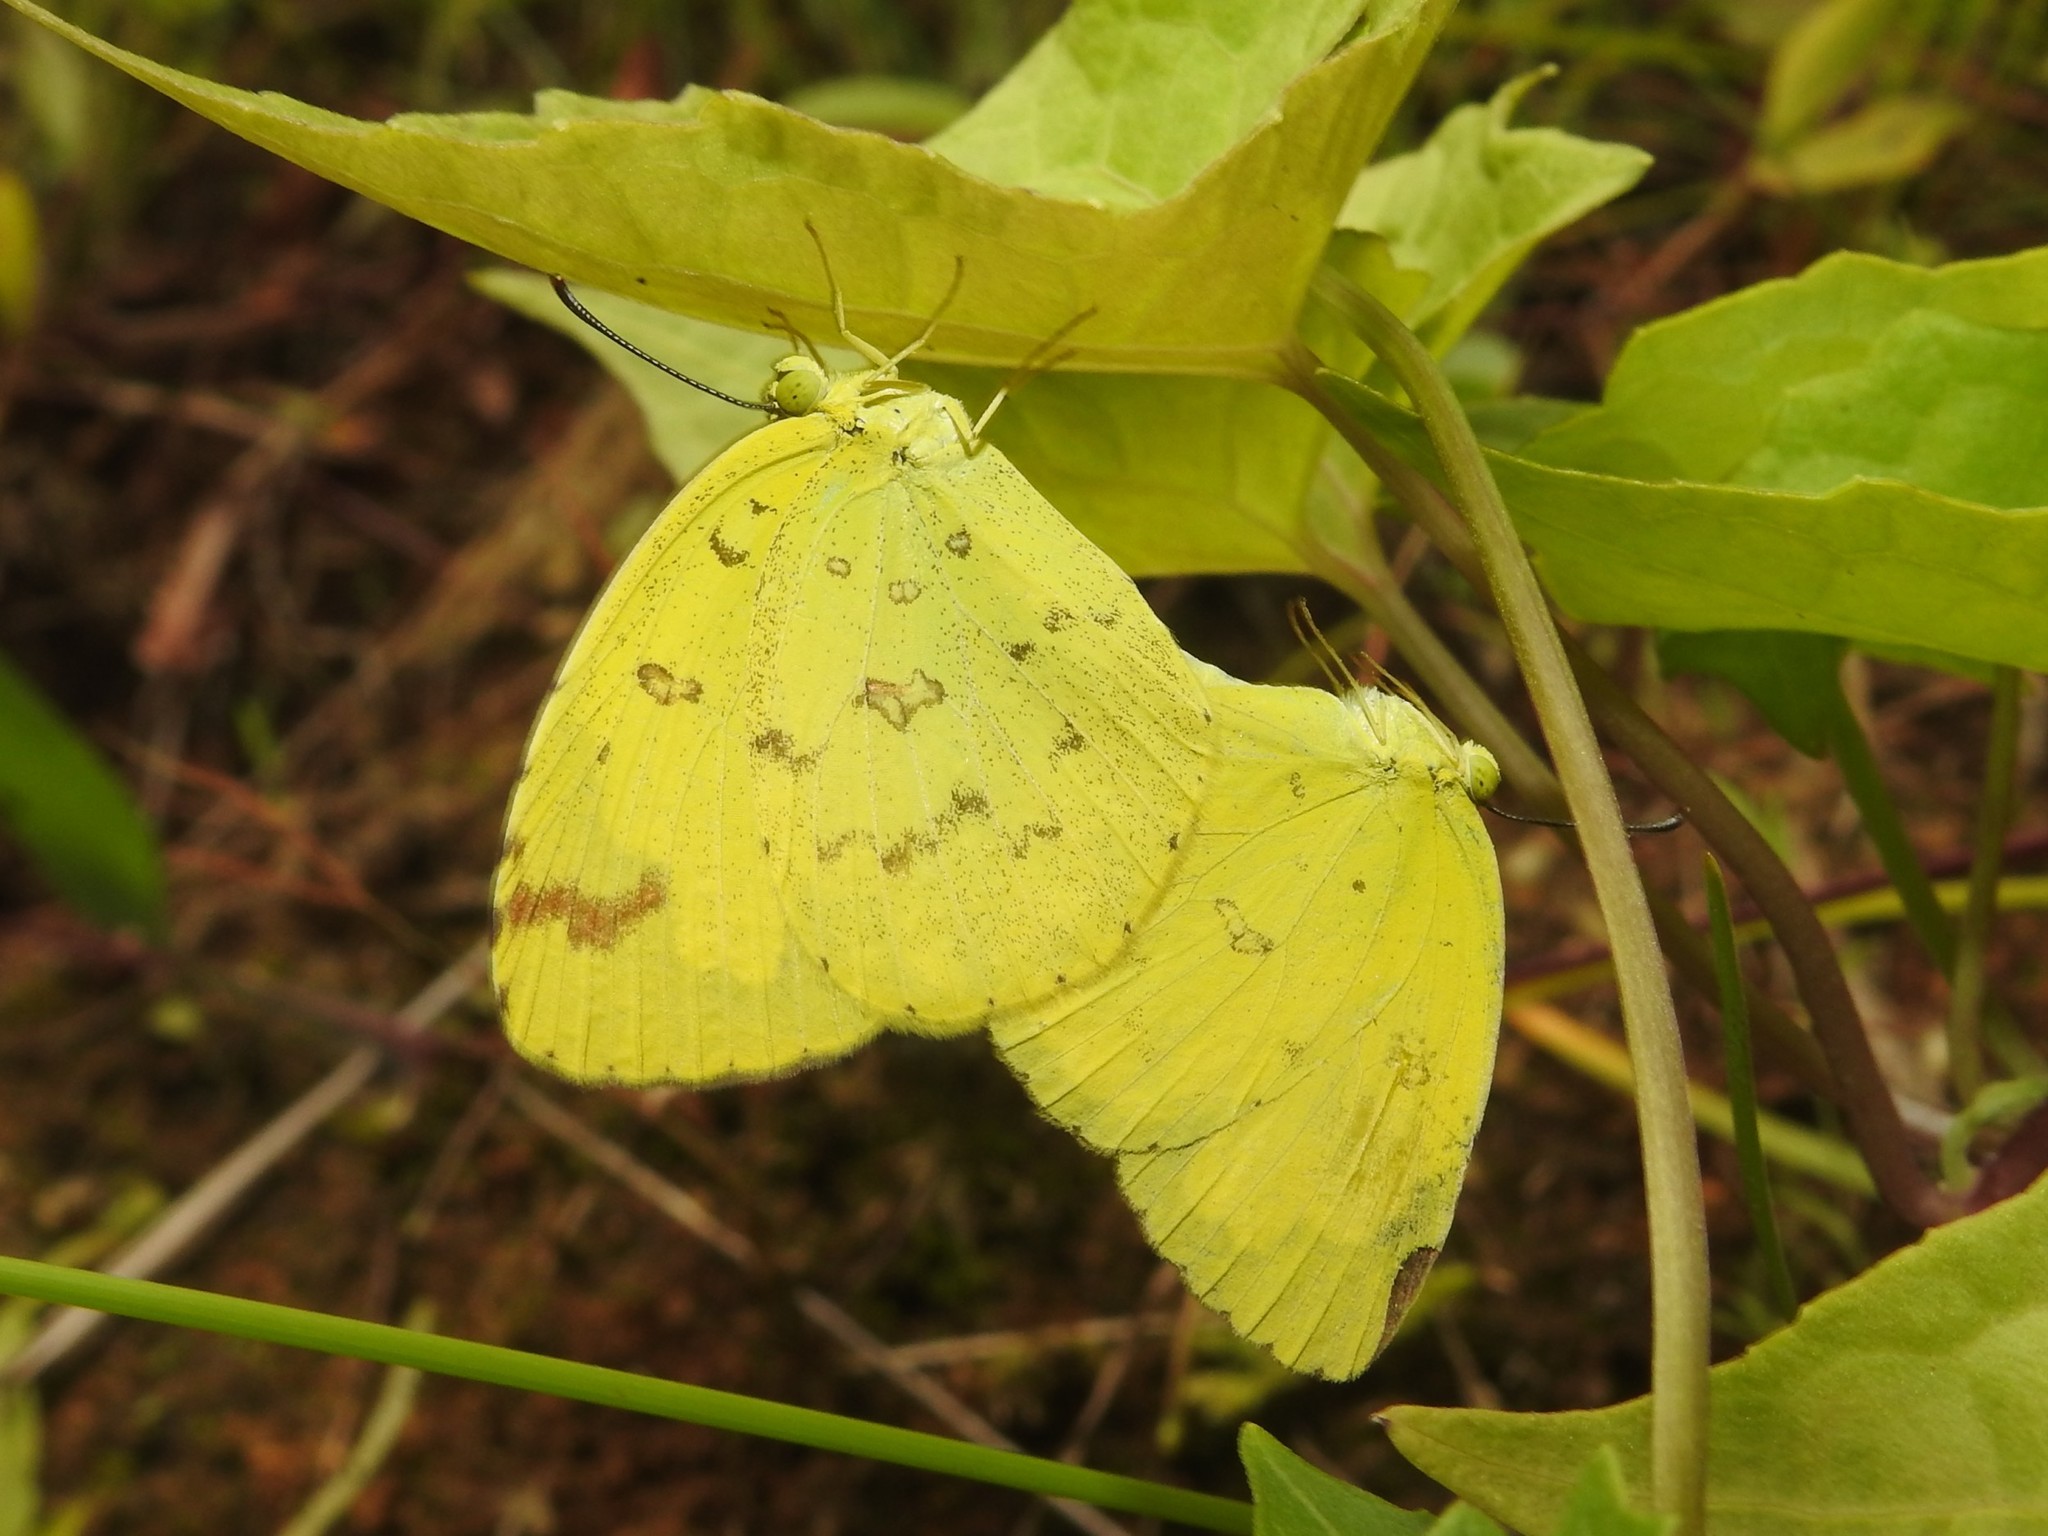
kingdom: Animalia
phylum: Arthropoda
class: Insecta
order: Lepidoptera
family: Pieridae
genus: Eurema
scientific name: Eurema hecabe
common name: Pale grass yellow
